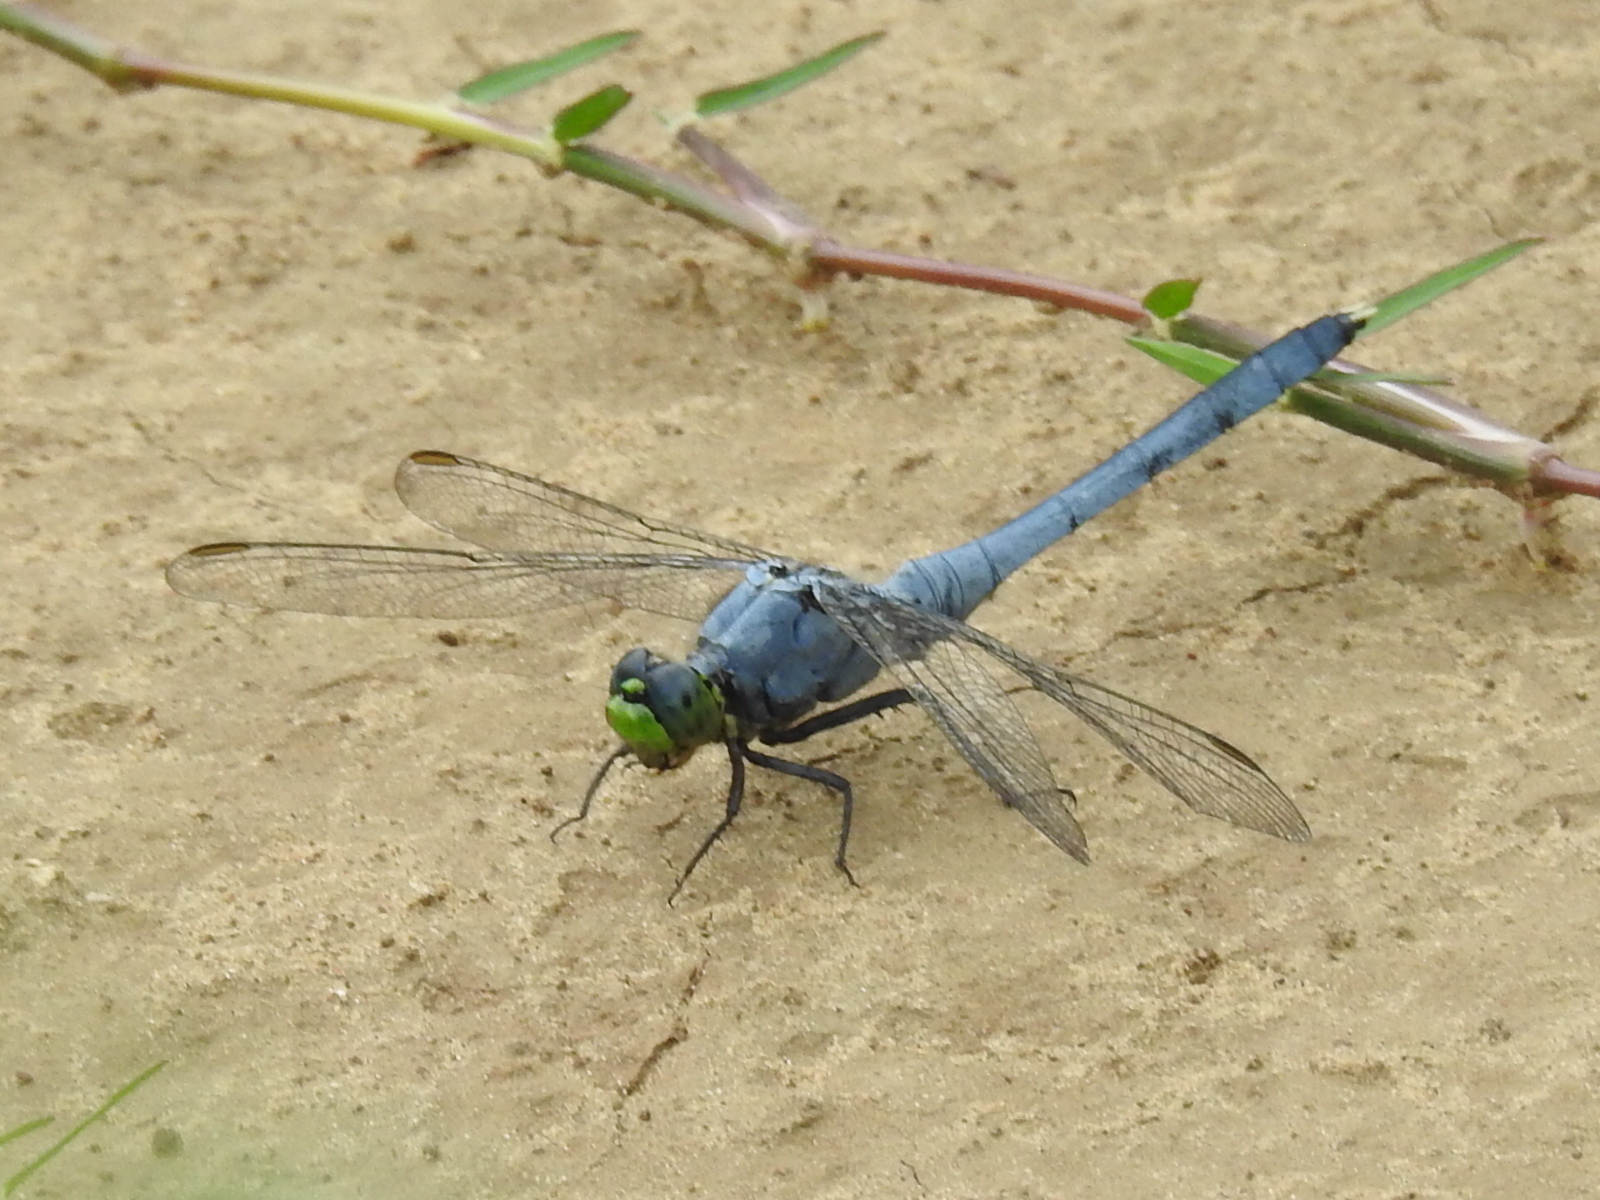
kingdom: Animalia
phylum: Arthropoda
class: Insecta
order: Odonata
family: Libellulidae
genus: Erythemis
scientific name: Erythemis simplicicollis
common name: Eastern pondhawk
